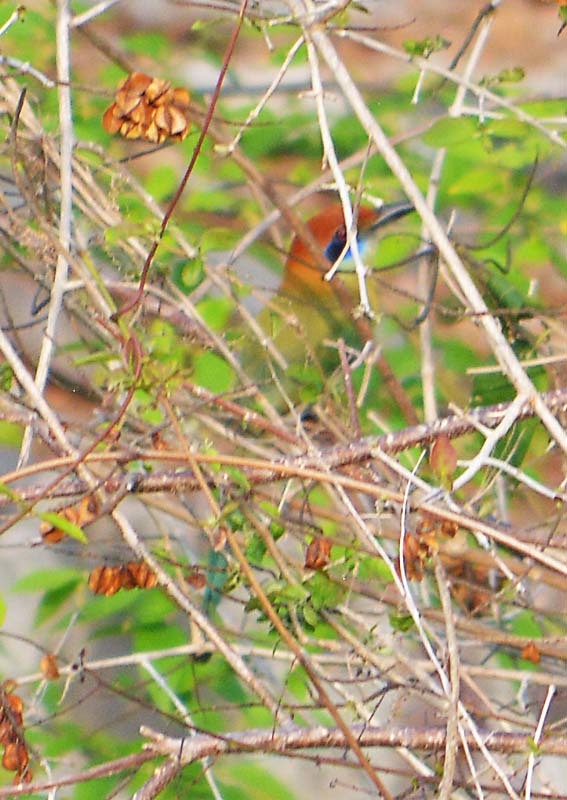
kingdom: Animalia
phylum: Chordata
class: Aves
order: Coraciiformes
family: Momotidae
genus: Momotus
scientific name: Momotus mexicanus
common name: Russet-crowned motmot
